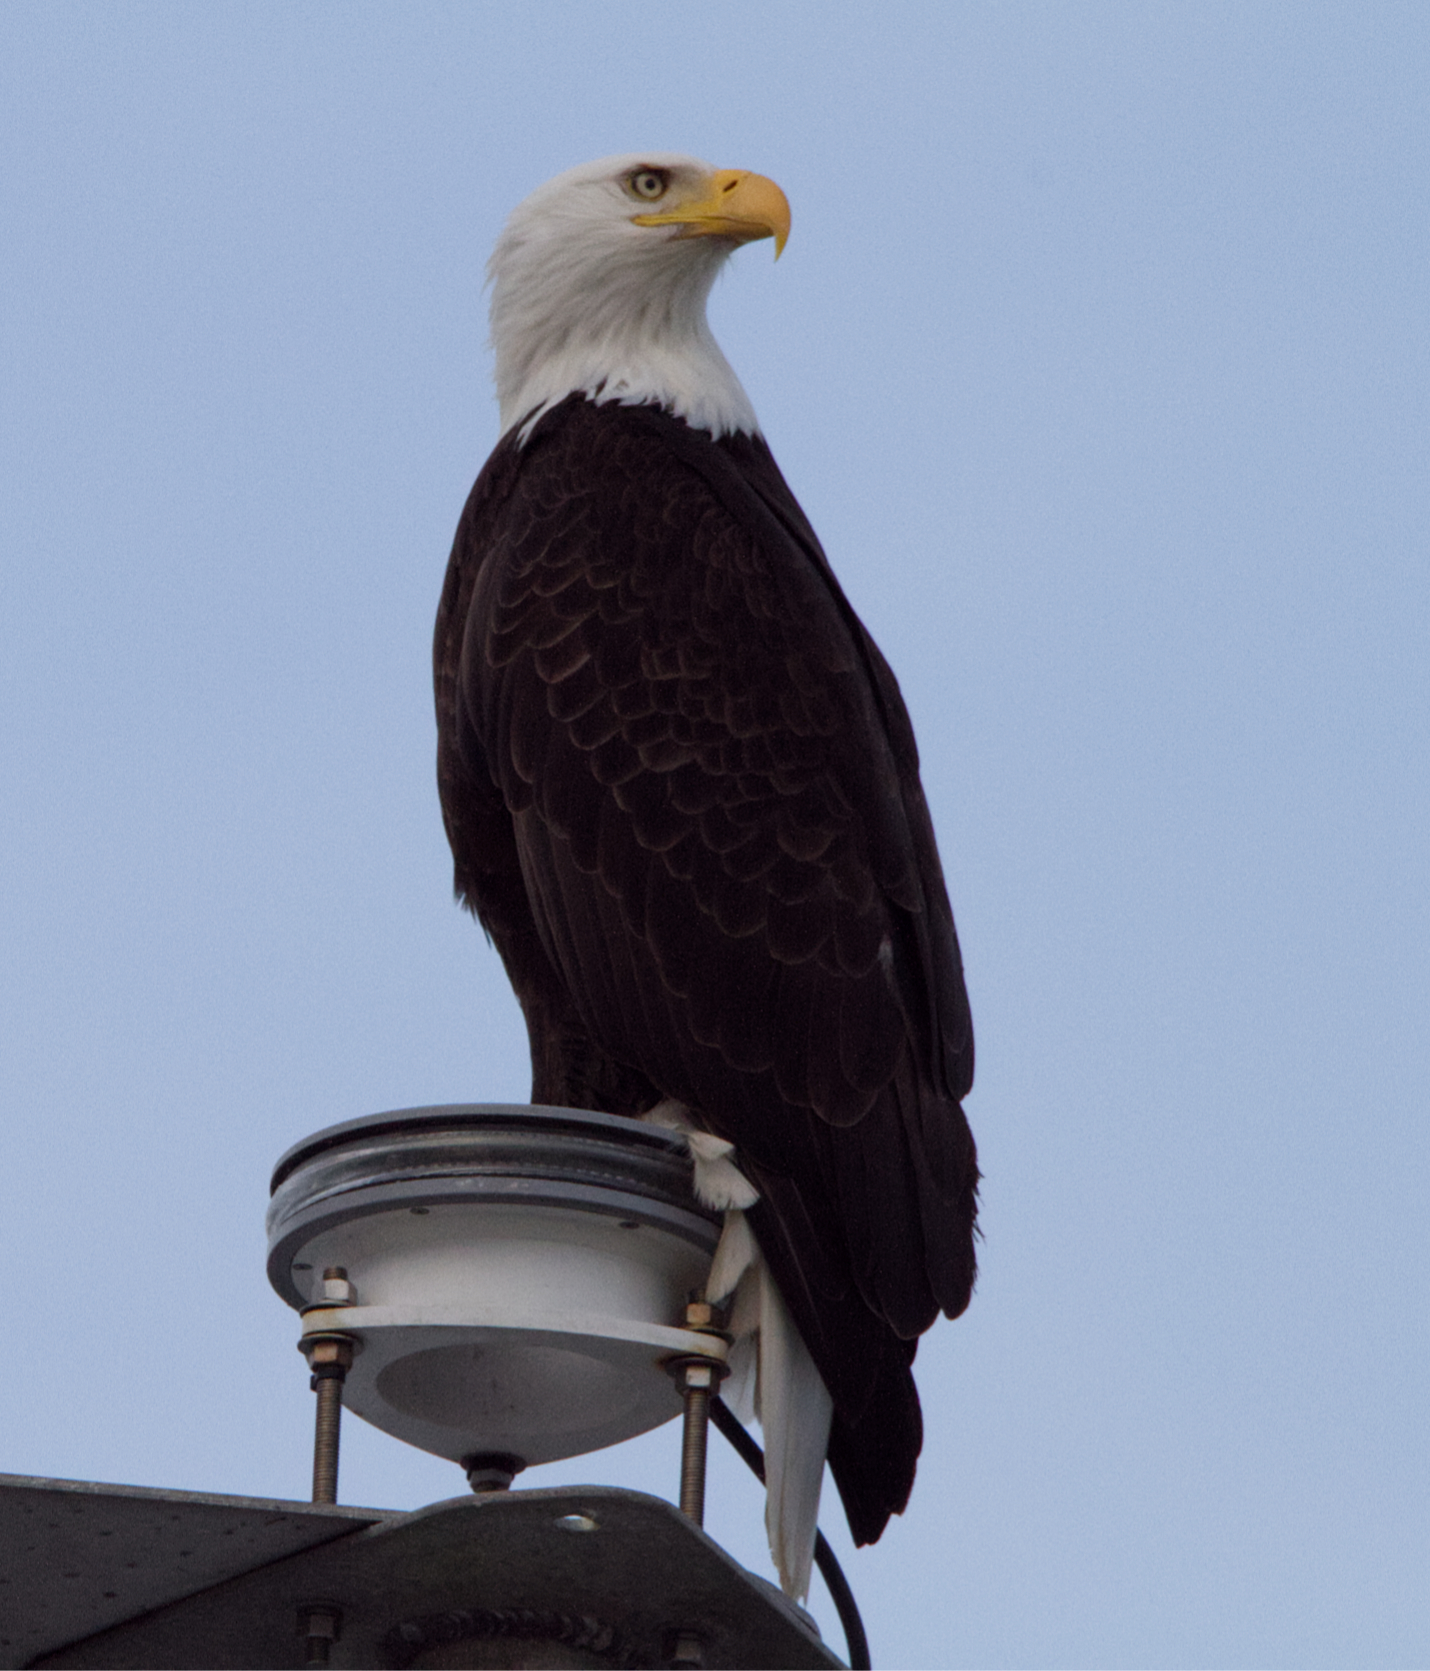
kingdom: Animalia
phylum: Chordata
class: Aves
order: Accipitriformes
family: Accipitridae
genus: Haliaeetus
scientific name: Haliaeetus leucocephalus
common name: Bald eagle
